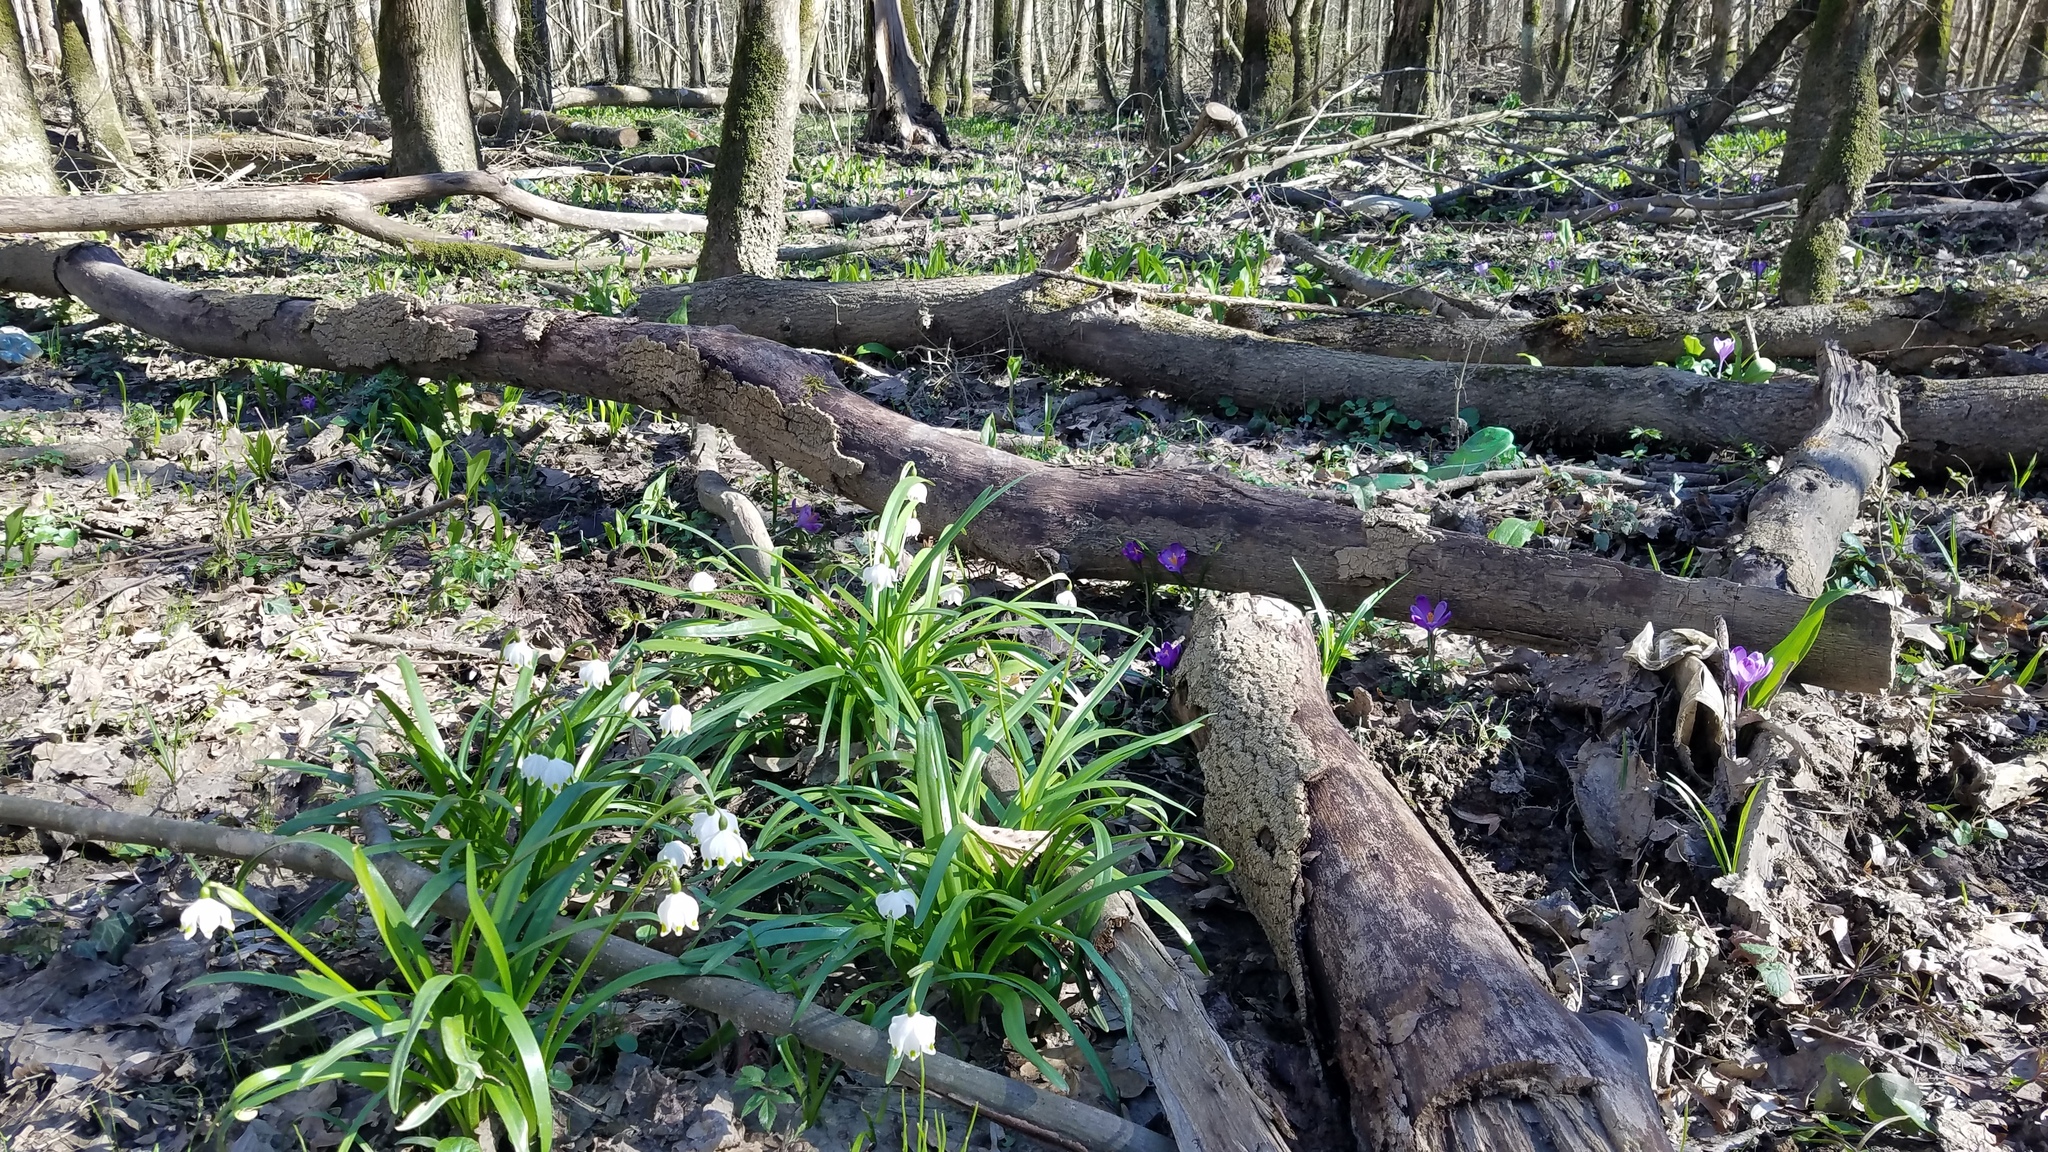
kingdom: Plantae
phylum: Tracheophyta
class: Liliopsida
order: Asparagales
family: Amaryllidaceae
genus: Leucojum
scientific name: Leucojum vernum
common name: Spring snowflake
